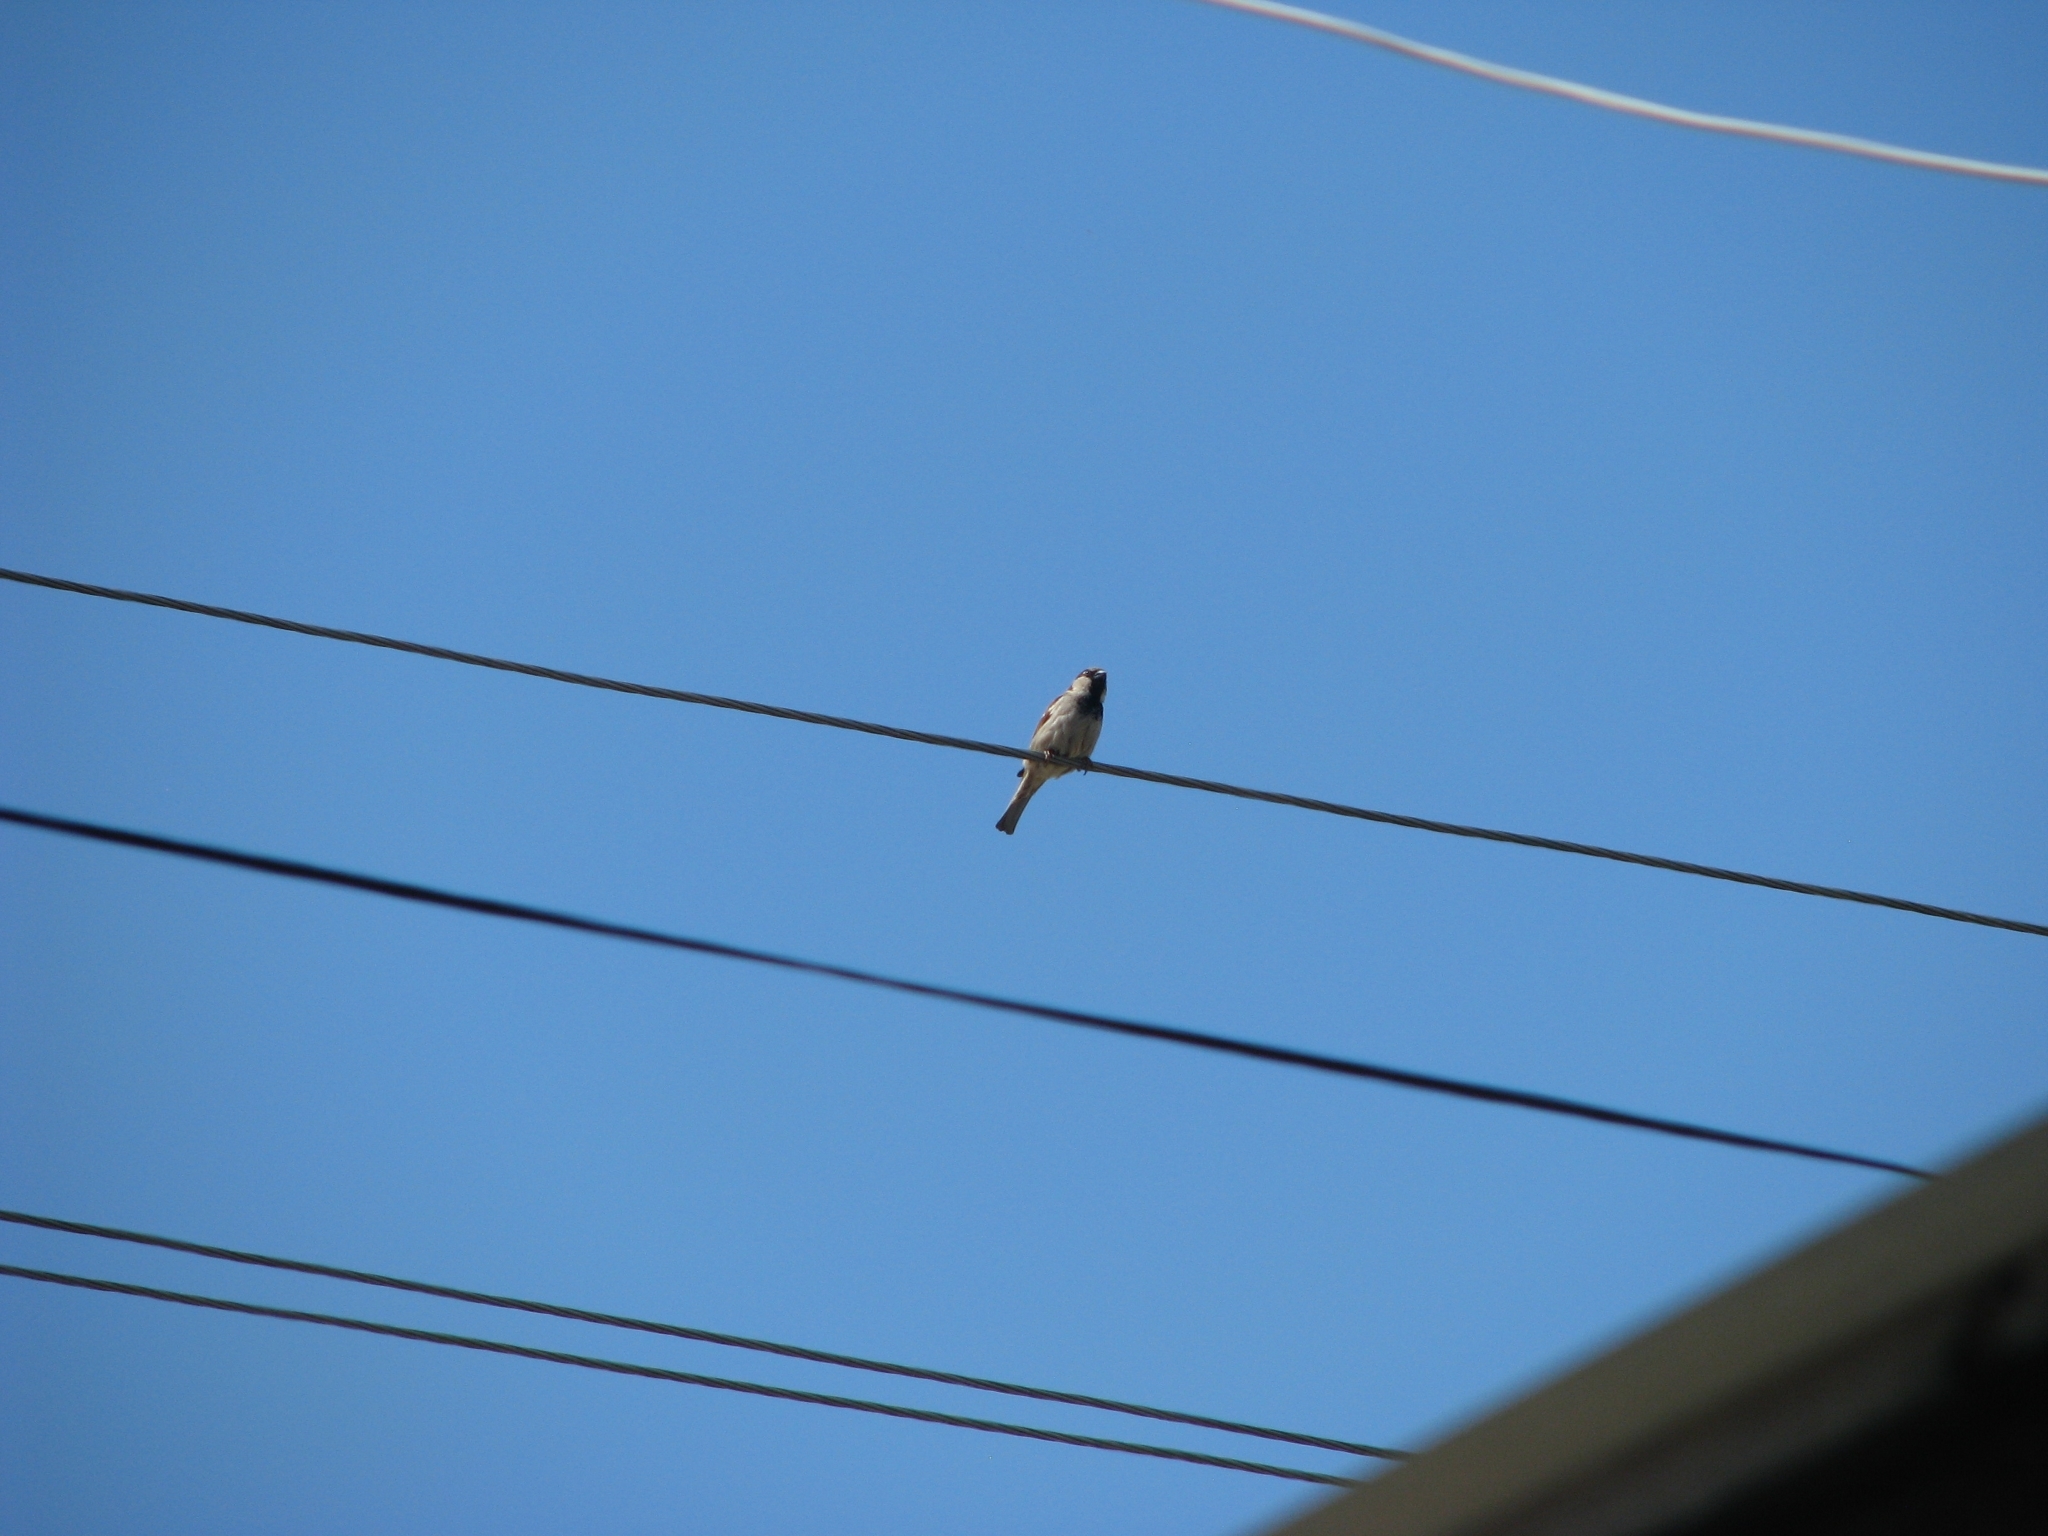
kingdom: Animalia
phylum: Chordata
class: Aves
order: Passeriformes
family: Passeridae
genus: Passer
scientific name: Passer domesticus
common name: House sparrow
